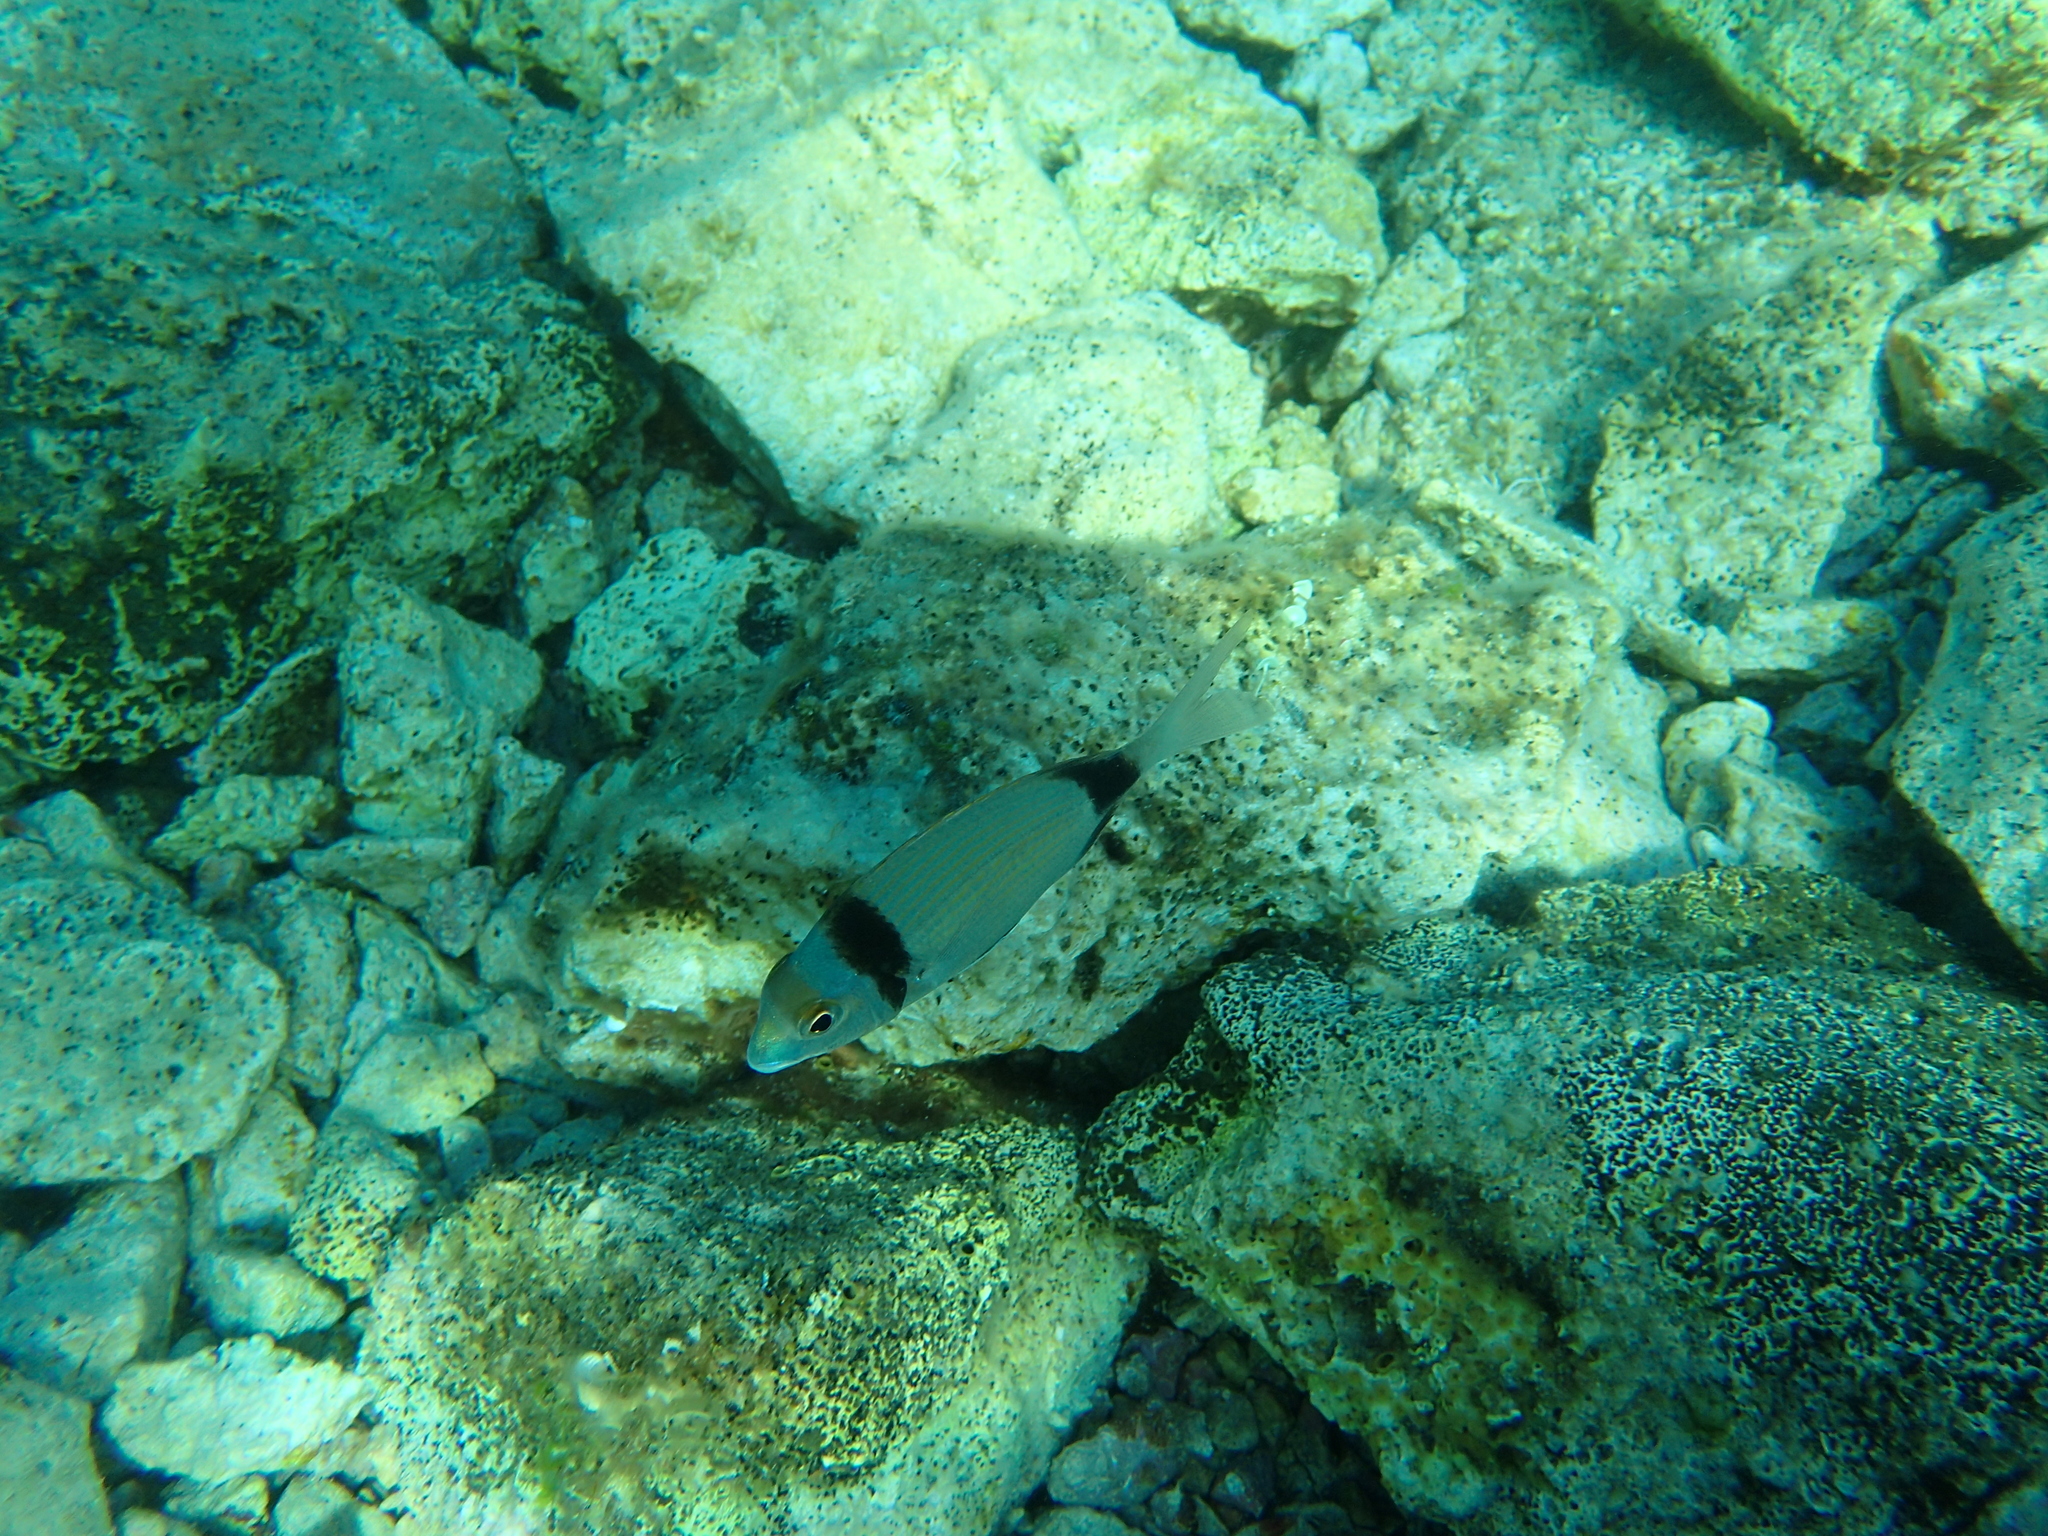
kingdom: Animalia
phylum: Chordata
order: Perciformes
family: Sparidae
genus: Diplodus
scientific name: Diplodus vulgaris
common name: Common two-banded seabream
